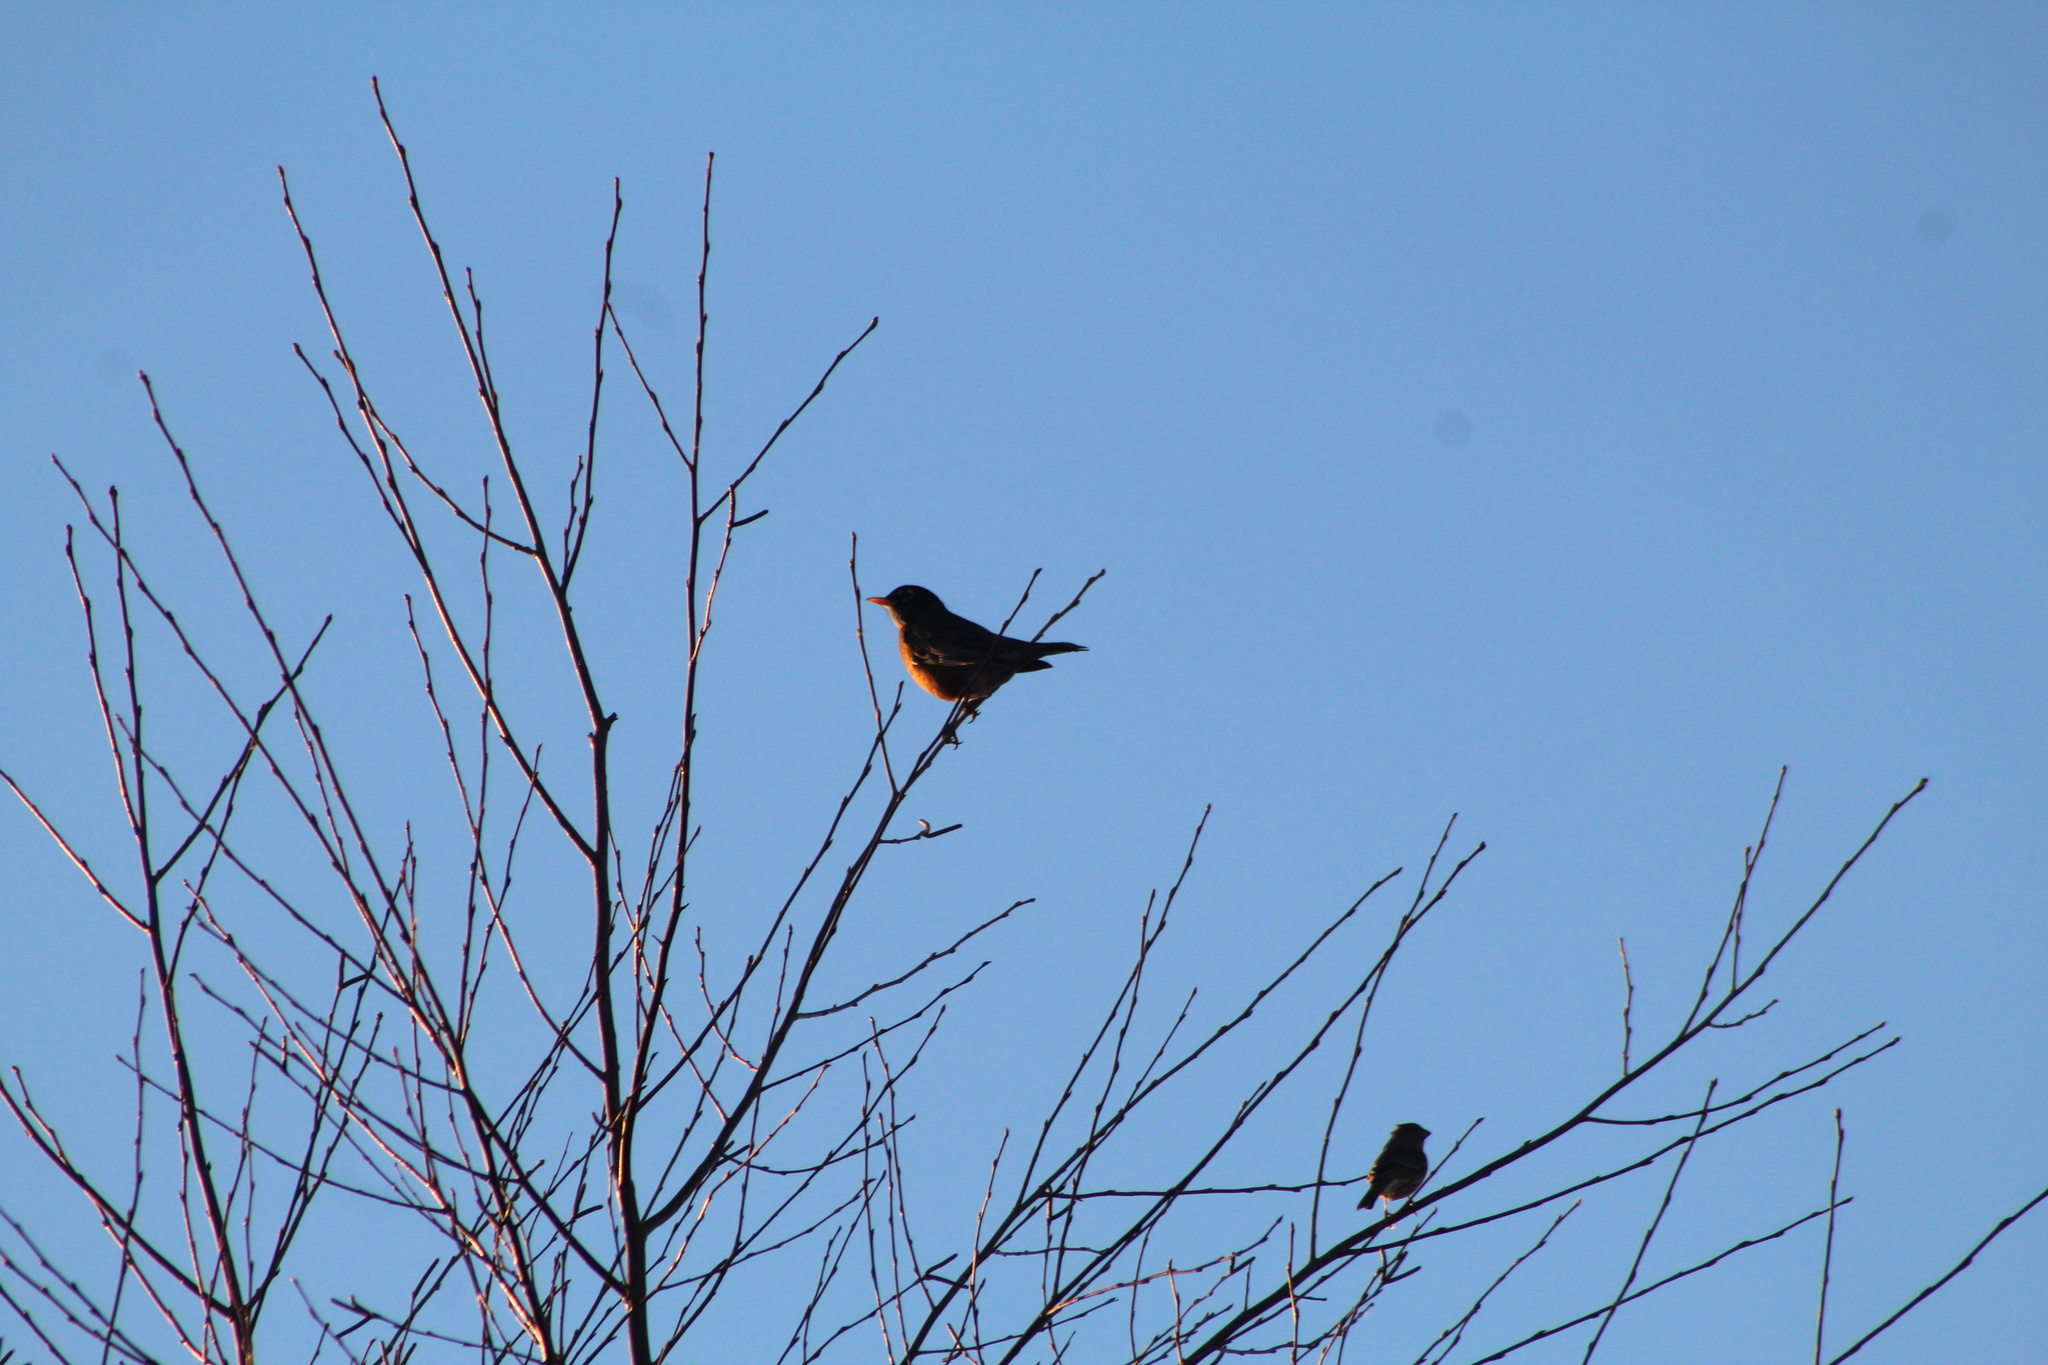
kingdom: Animalia
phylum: Chordata
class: Aves
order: Passeriformes
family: Turdidae
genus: Turdus
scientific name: Turdus migratorius
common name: American robin
